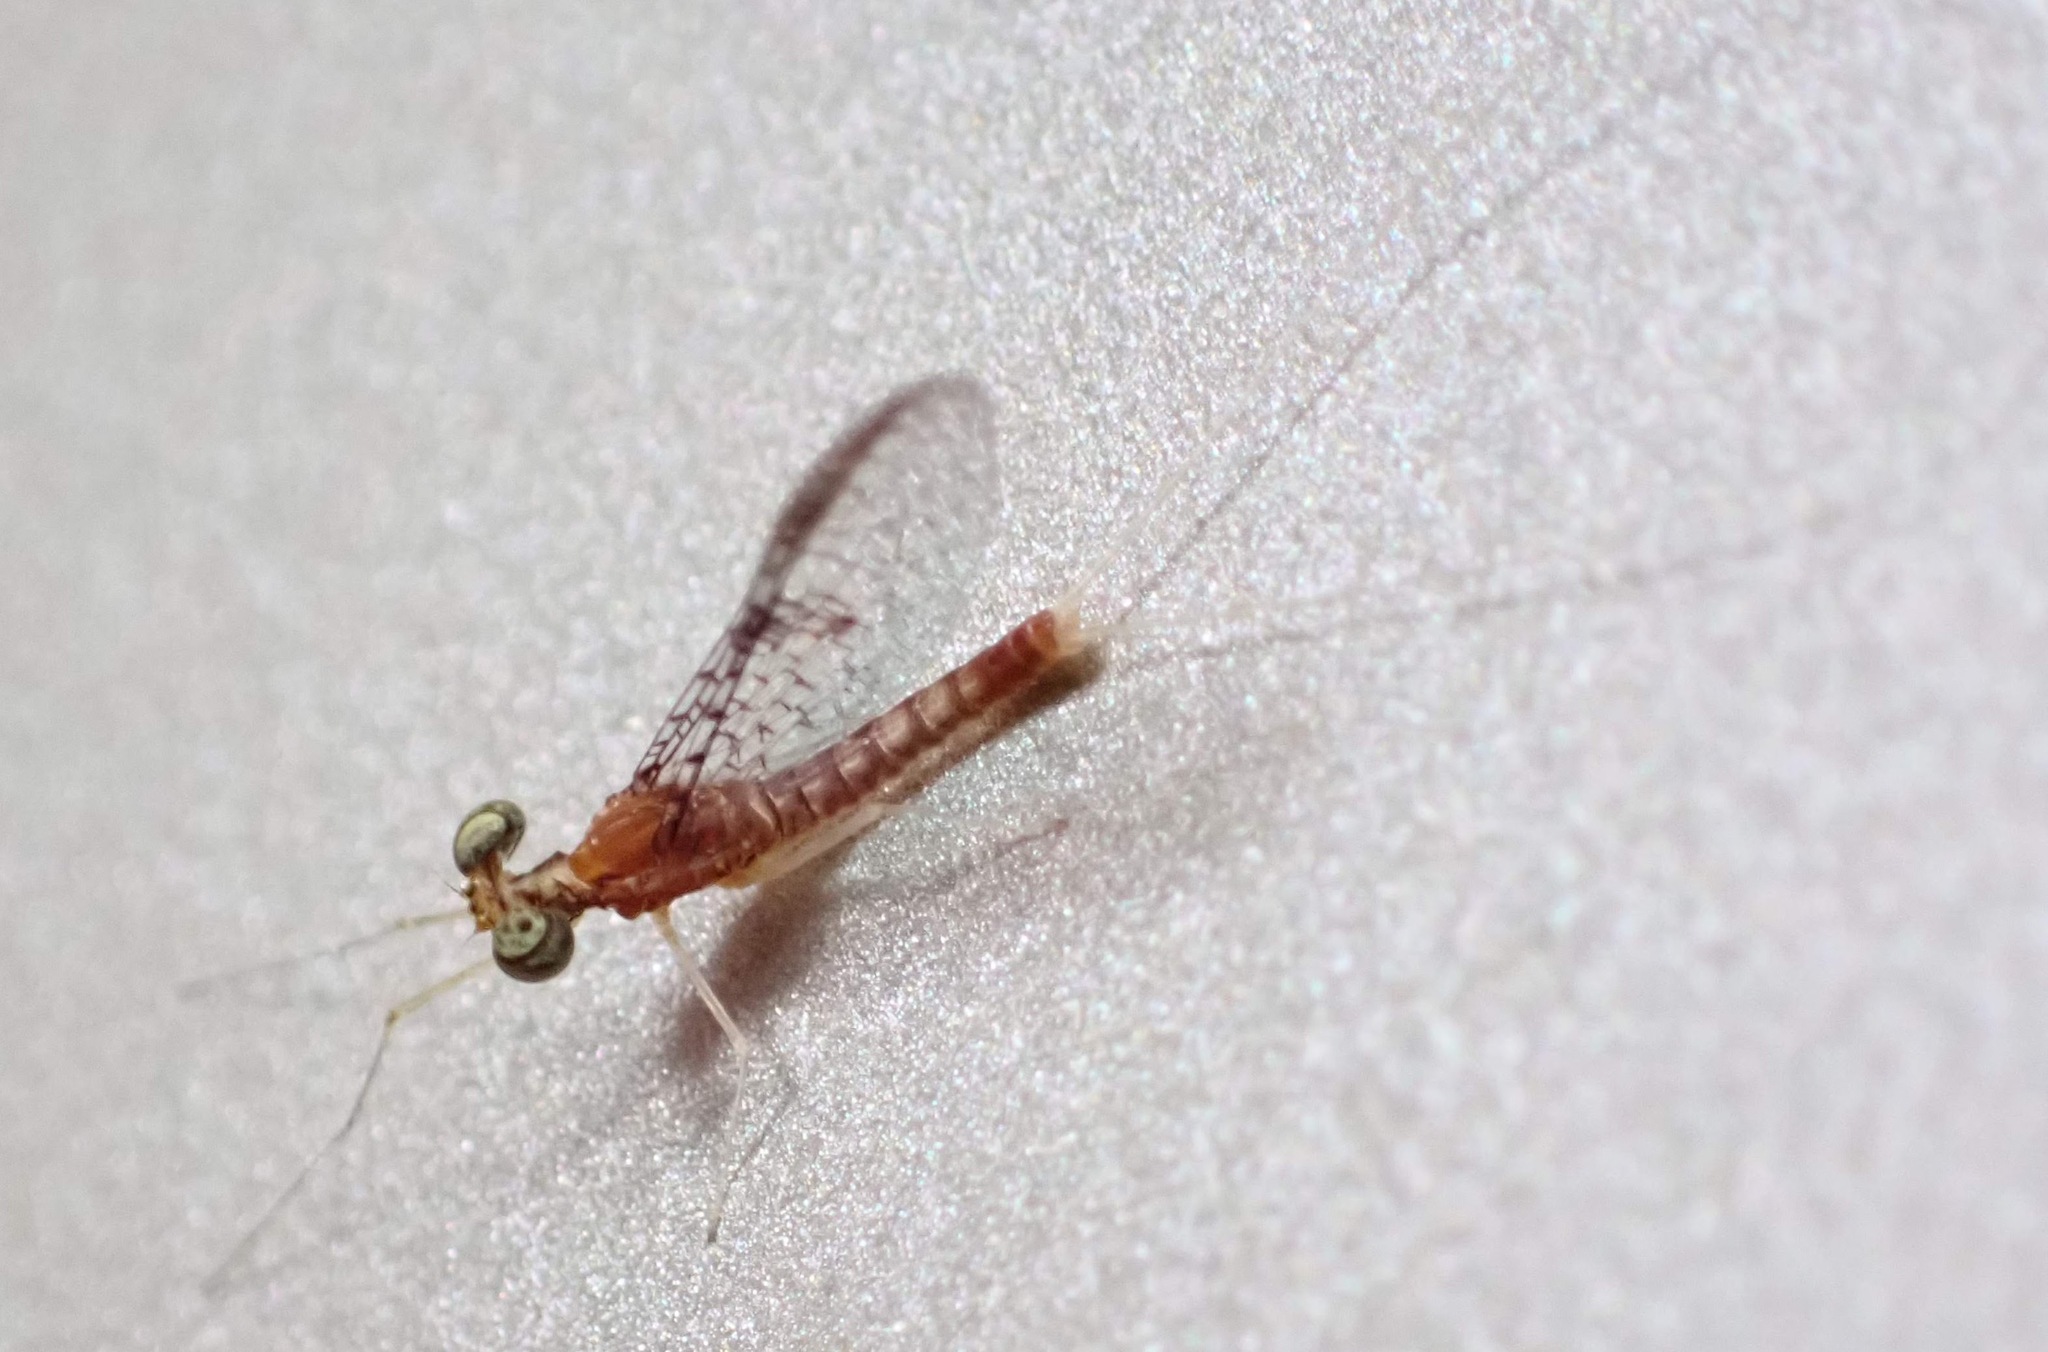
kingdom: Animalia
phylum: Arthropoda
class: Insecta
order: Ephemeroptera
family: Heptageniidae
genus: Leucrocuta
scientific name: Leucrocuta umbratica
